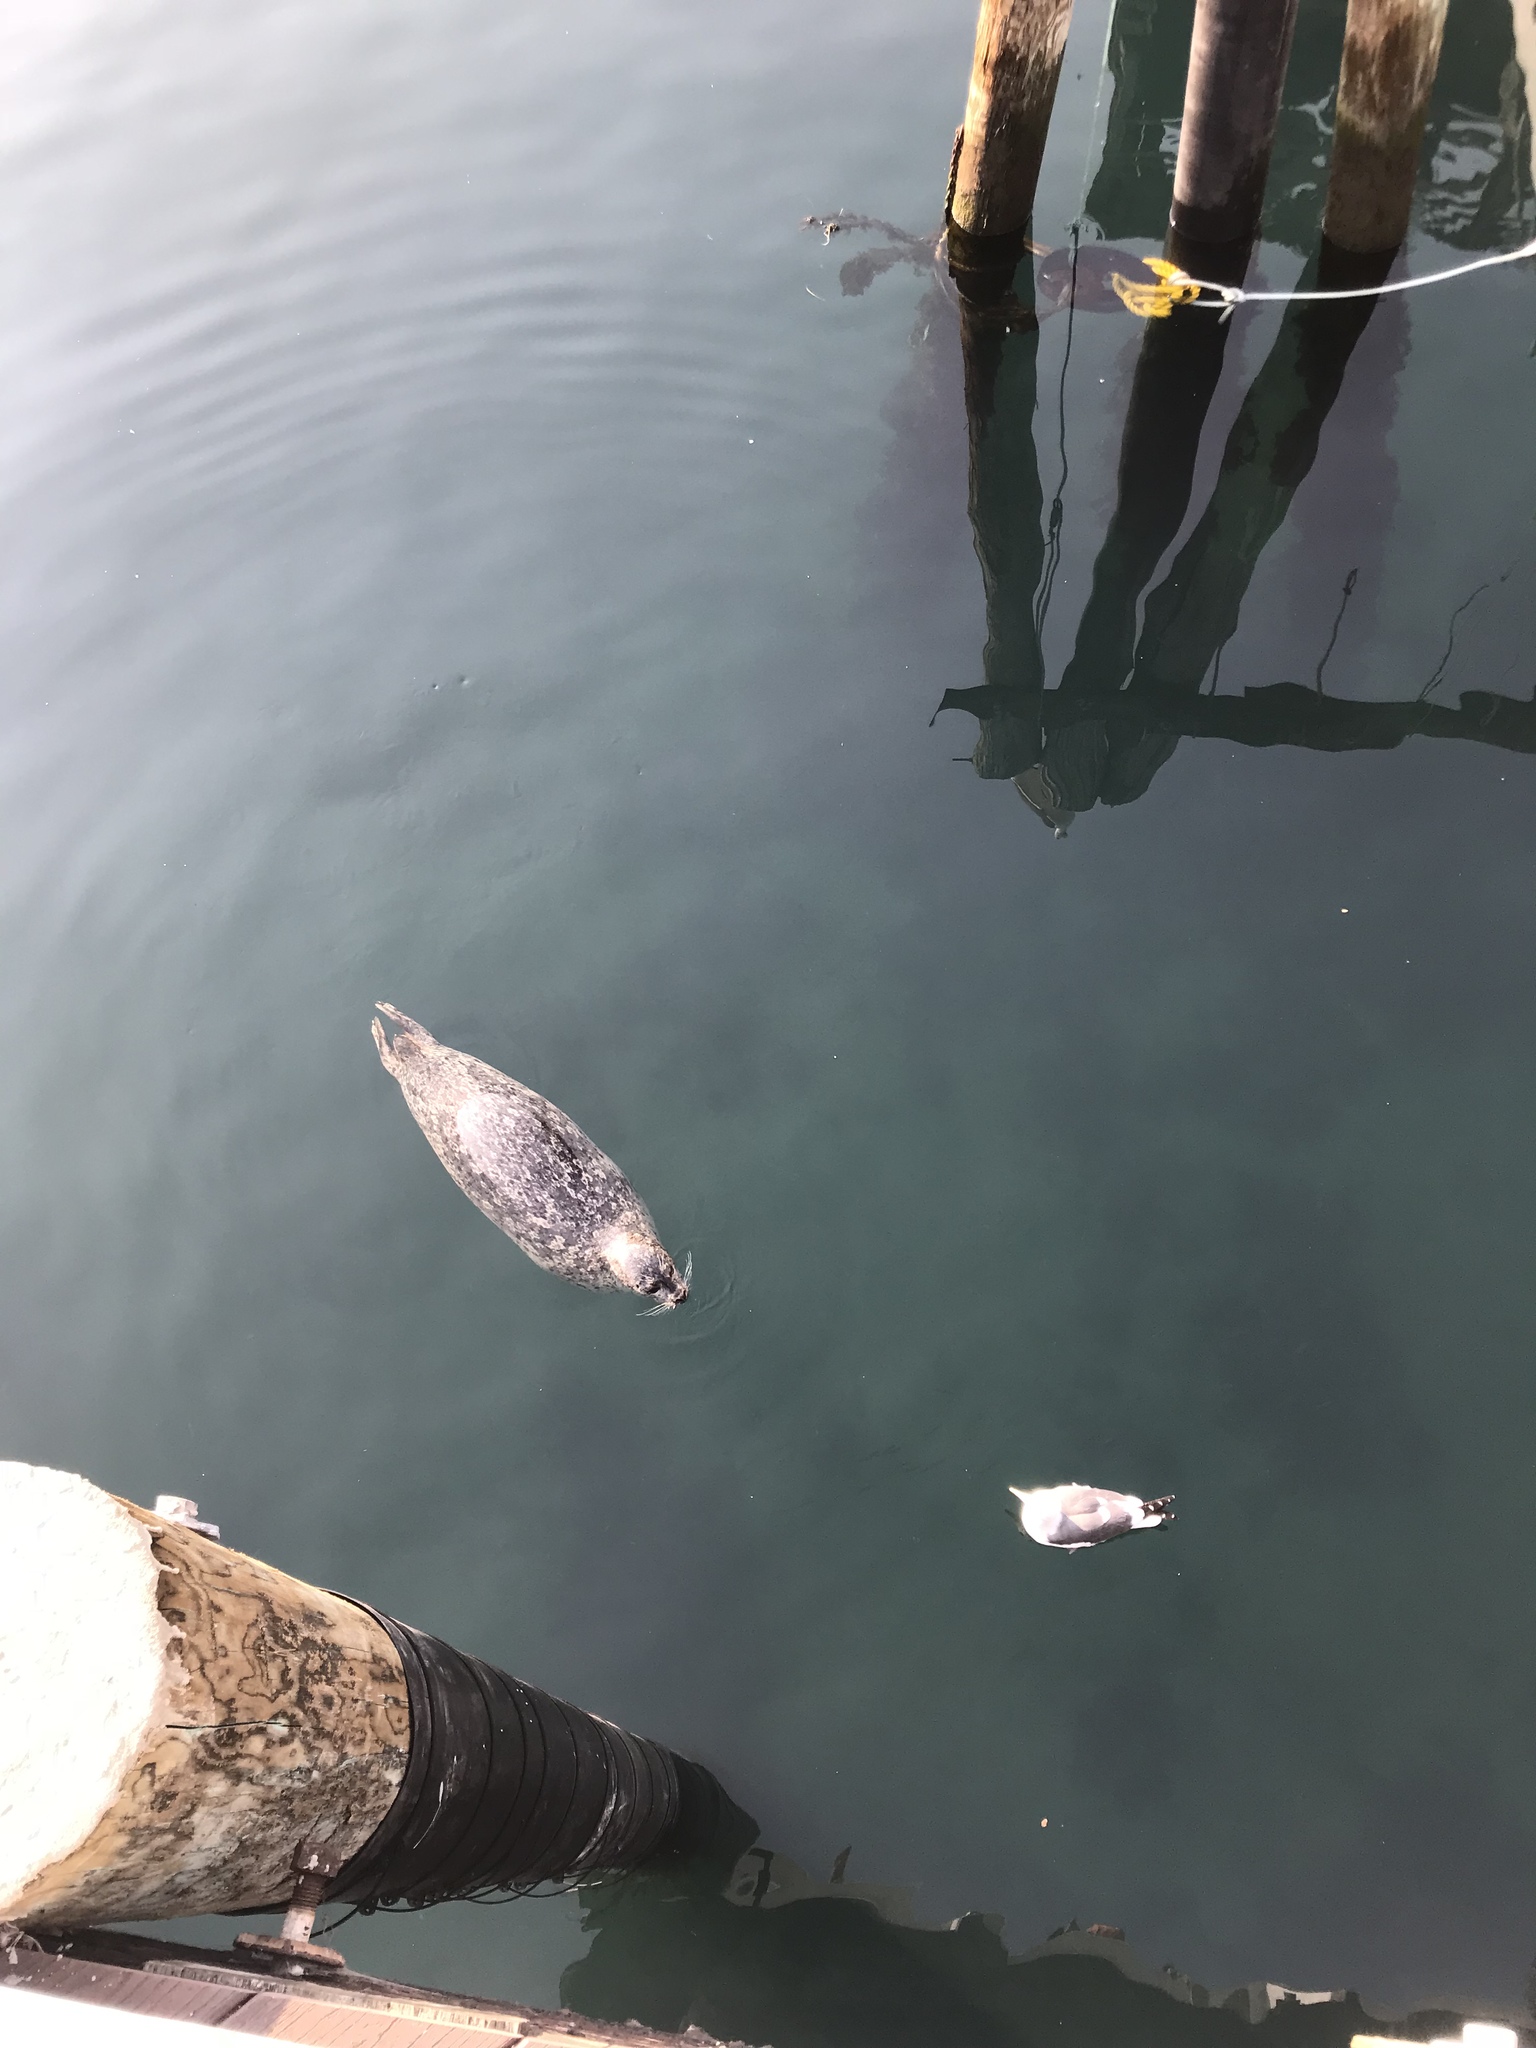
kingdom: Animalia
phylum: Chordata
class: Mammalia
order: Carnivora
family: Phocidae
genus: Phoca
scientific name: Phoca vitulina
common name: Harbor seal
